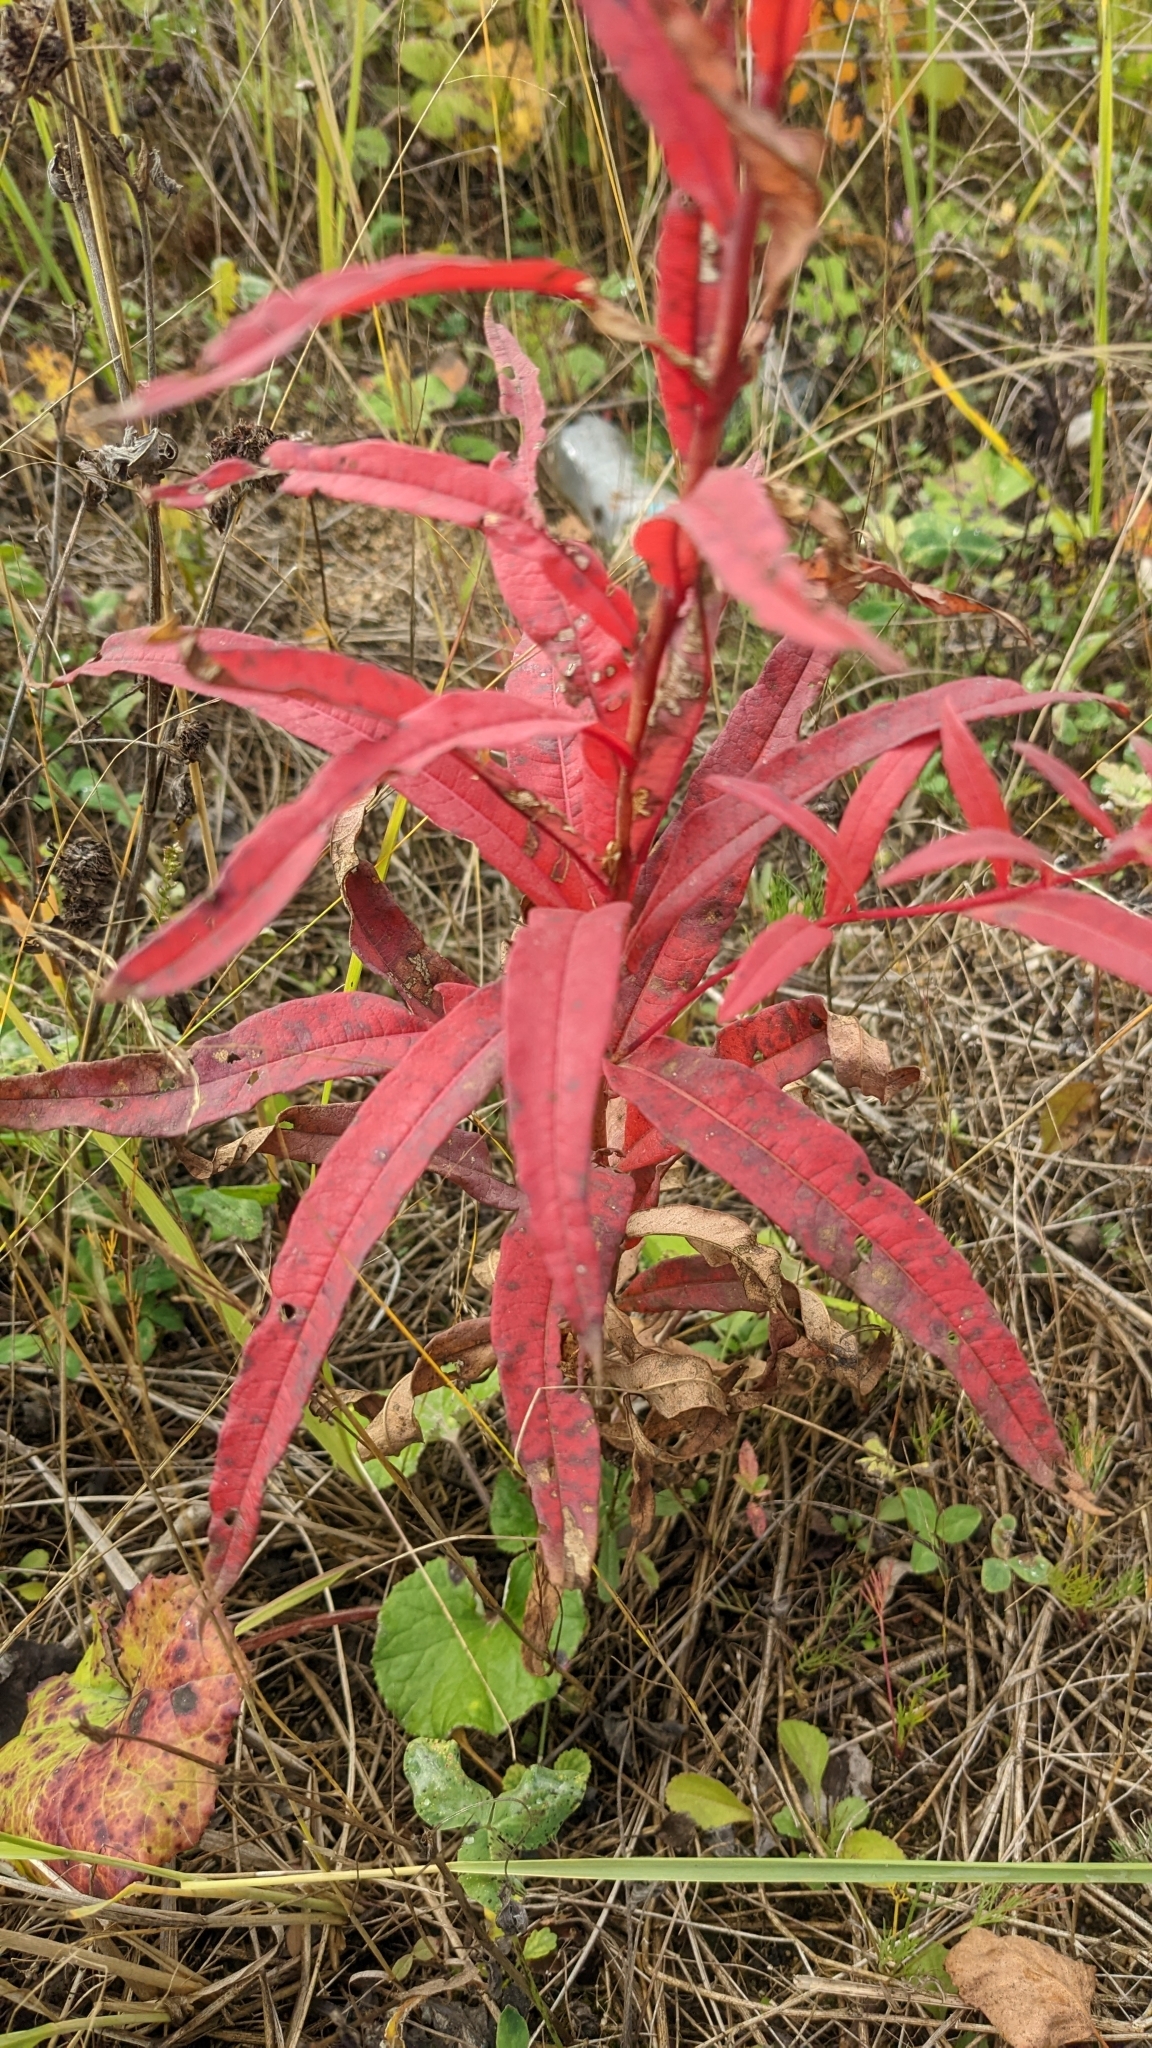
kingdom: Plantae
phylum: Tracheophyta
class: Magnoliopsida
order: Myrtales
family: Onagraceae
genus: Chamaenerion
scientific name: Chamaenerion angustifolium
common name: Fireweed
